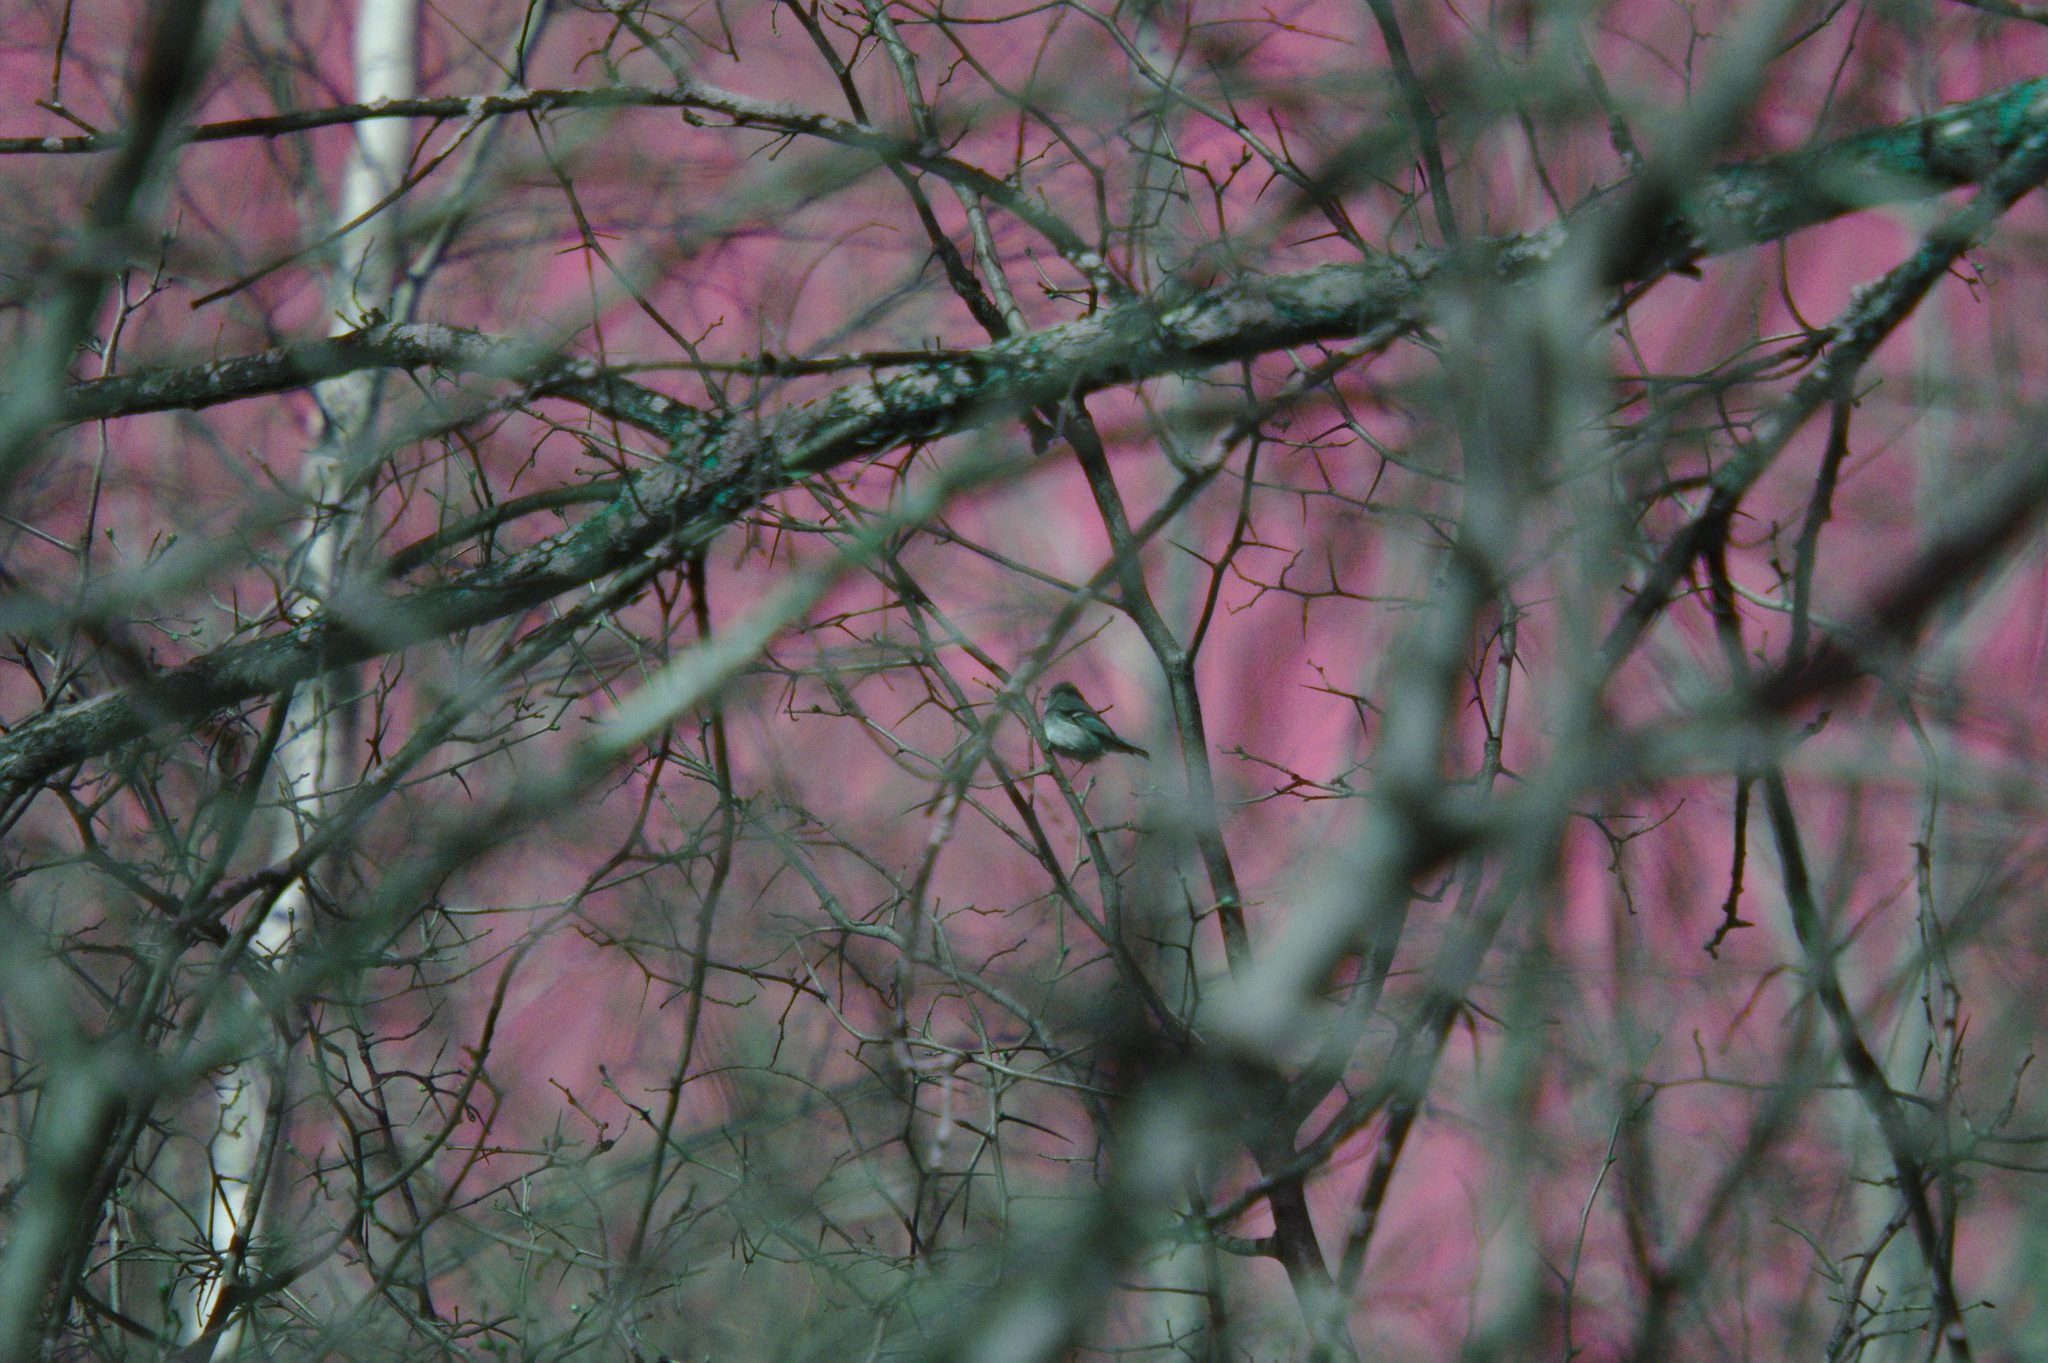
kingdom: Animalia
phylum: Chordata
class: Aves
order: Passeriformes
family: Regulidae
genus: Regulus
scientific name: Regulus calendula
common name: Ruby-crowned kinglet
